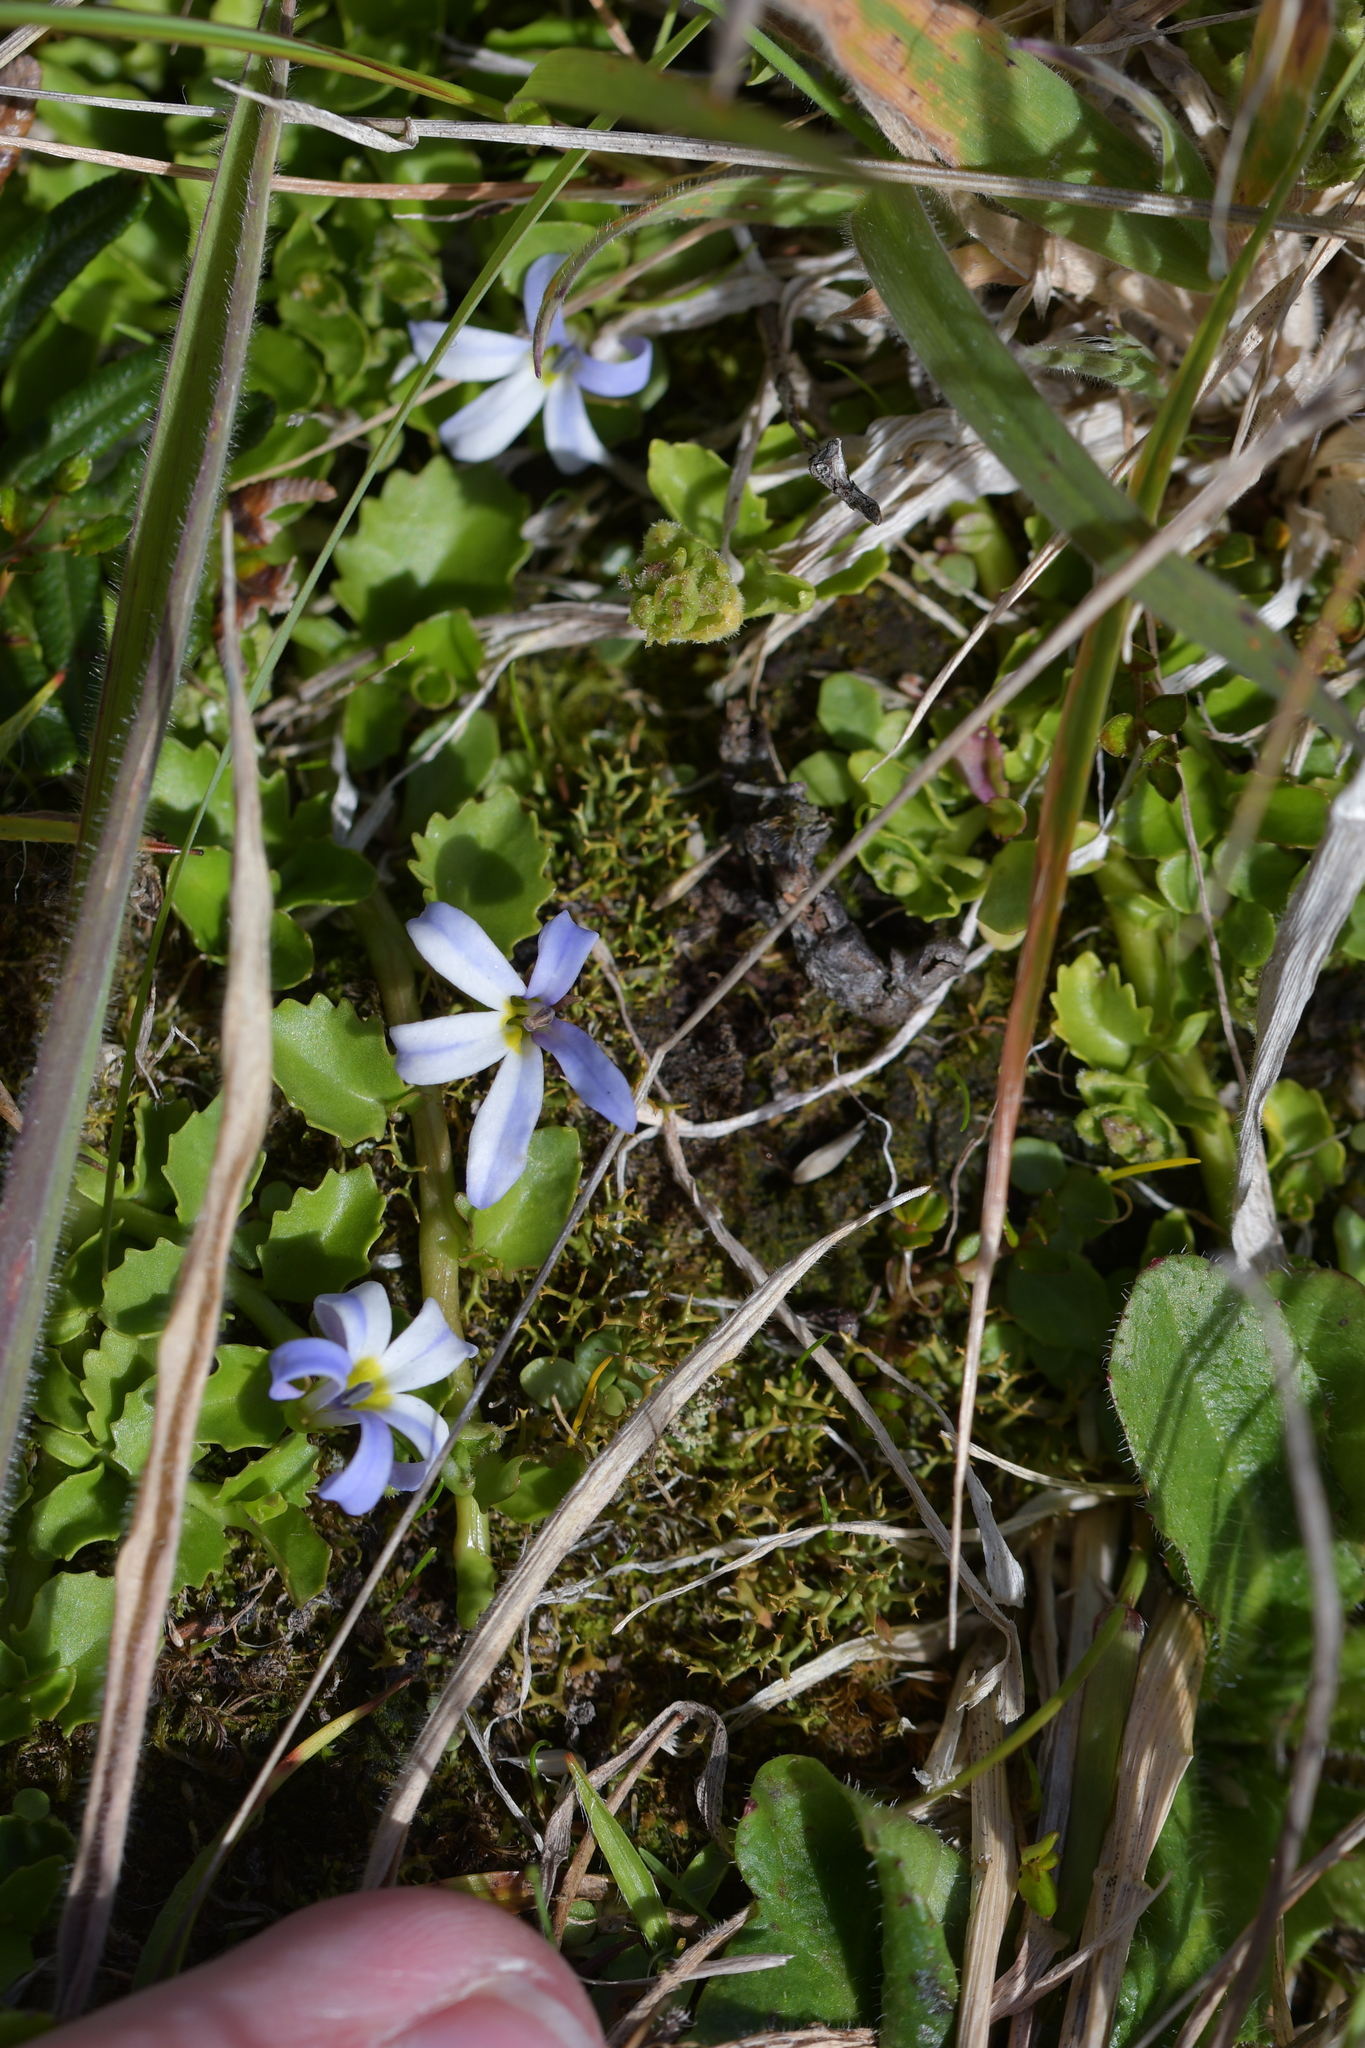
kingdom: Plantae
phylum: Tracheophyta
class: Magnoliopsida
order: Asterales
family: Campanulaceae
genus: Lobelia
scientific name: Lobelia arenaria
